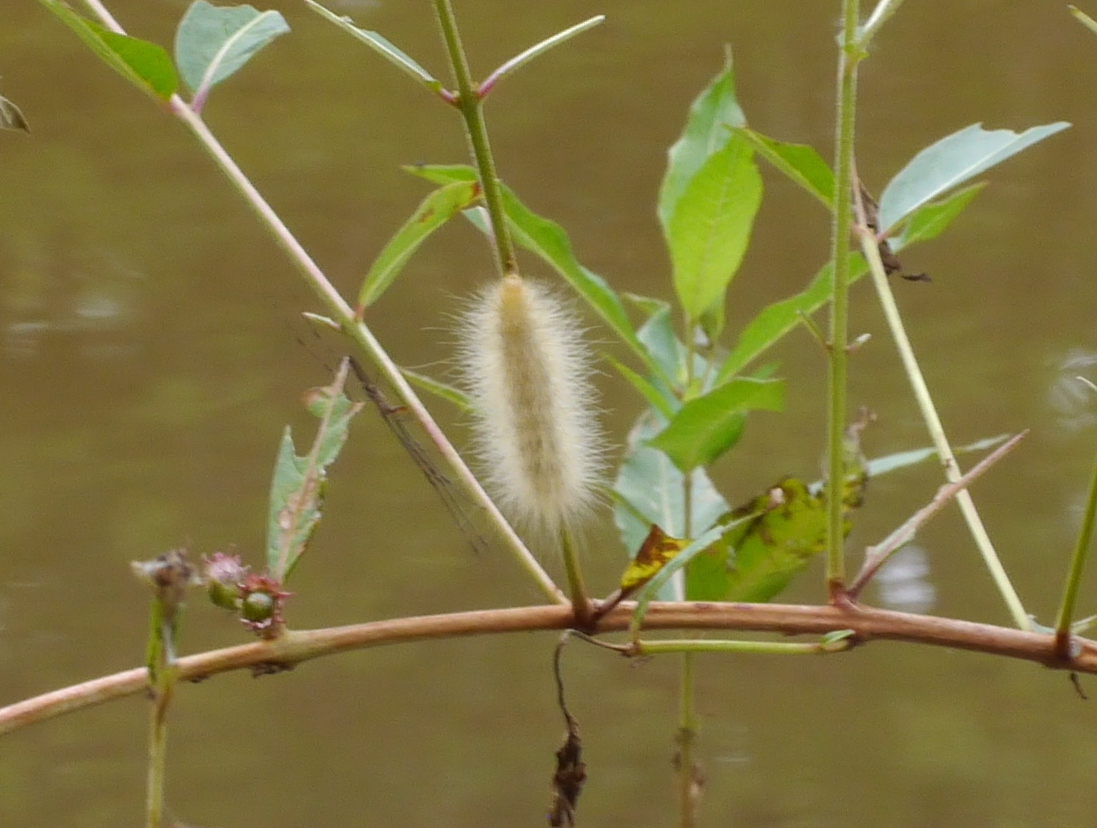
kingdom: Animalia
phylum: Arthropoda
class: Insecta
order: Lepidoptera
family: Erebidae
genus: Spilosoma
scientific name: Spilosoma virginica
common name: Virginia tiger moth
